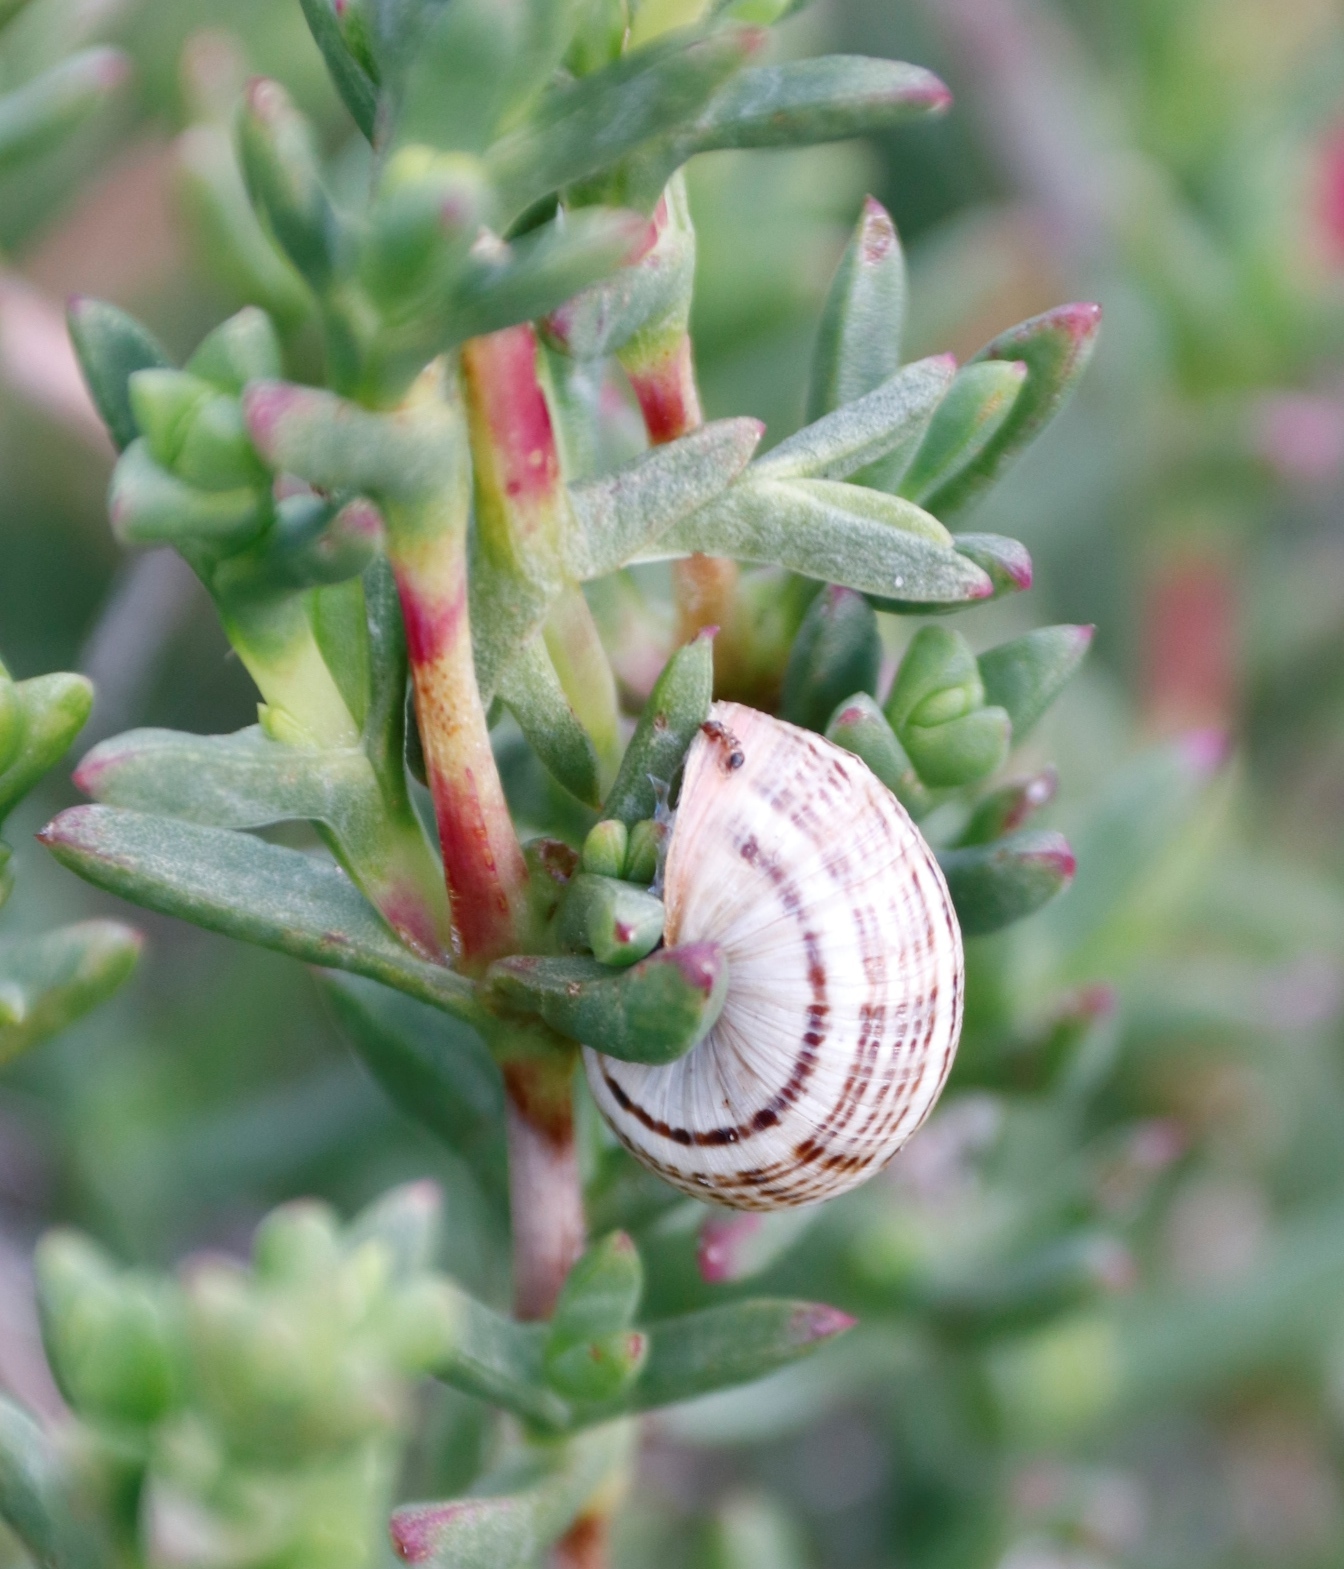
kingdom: Animalia
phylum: Mollusca
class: Gastropoda
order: Stylommatophora
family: Helicidae
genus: Theba
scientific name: Theba pisana
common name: White snail
